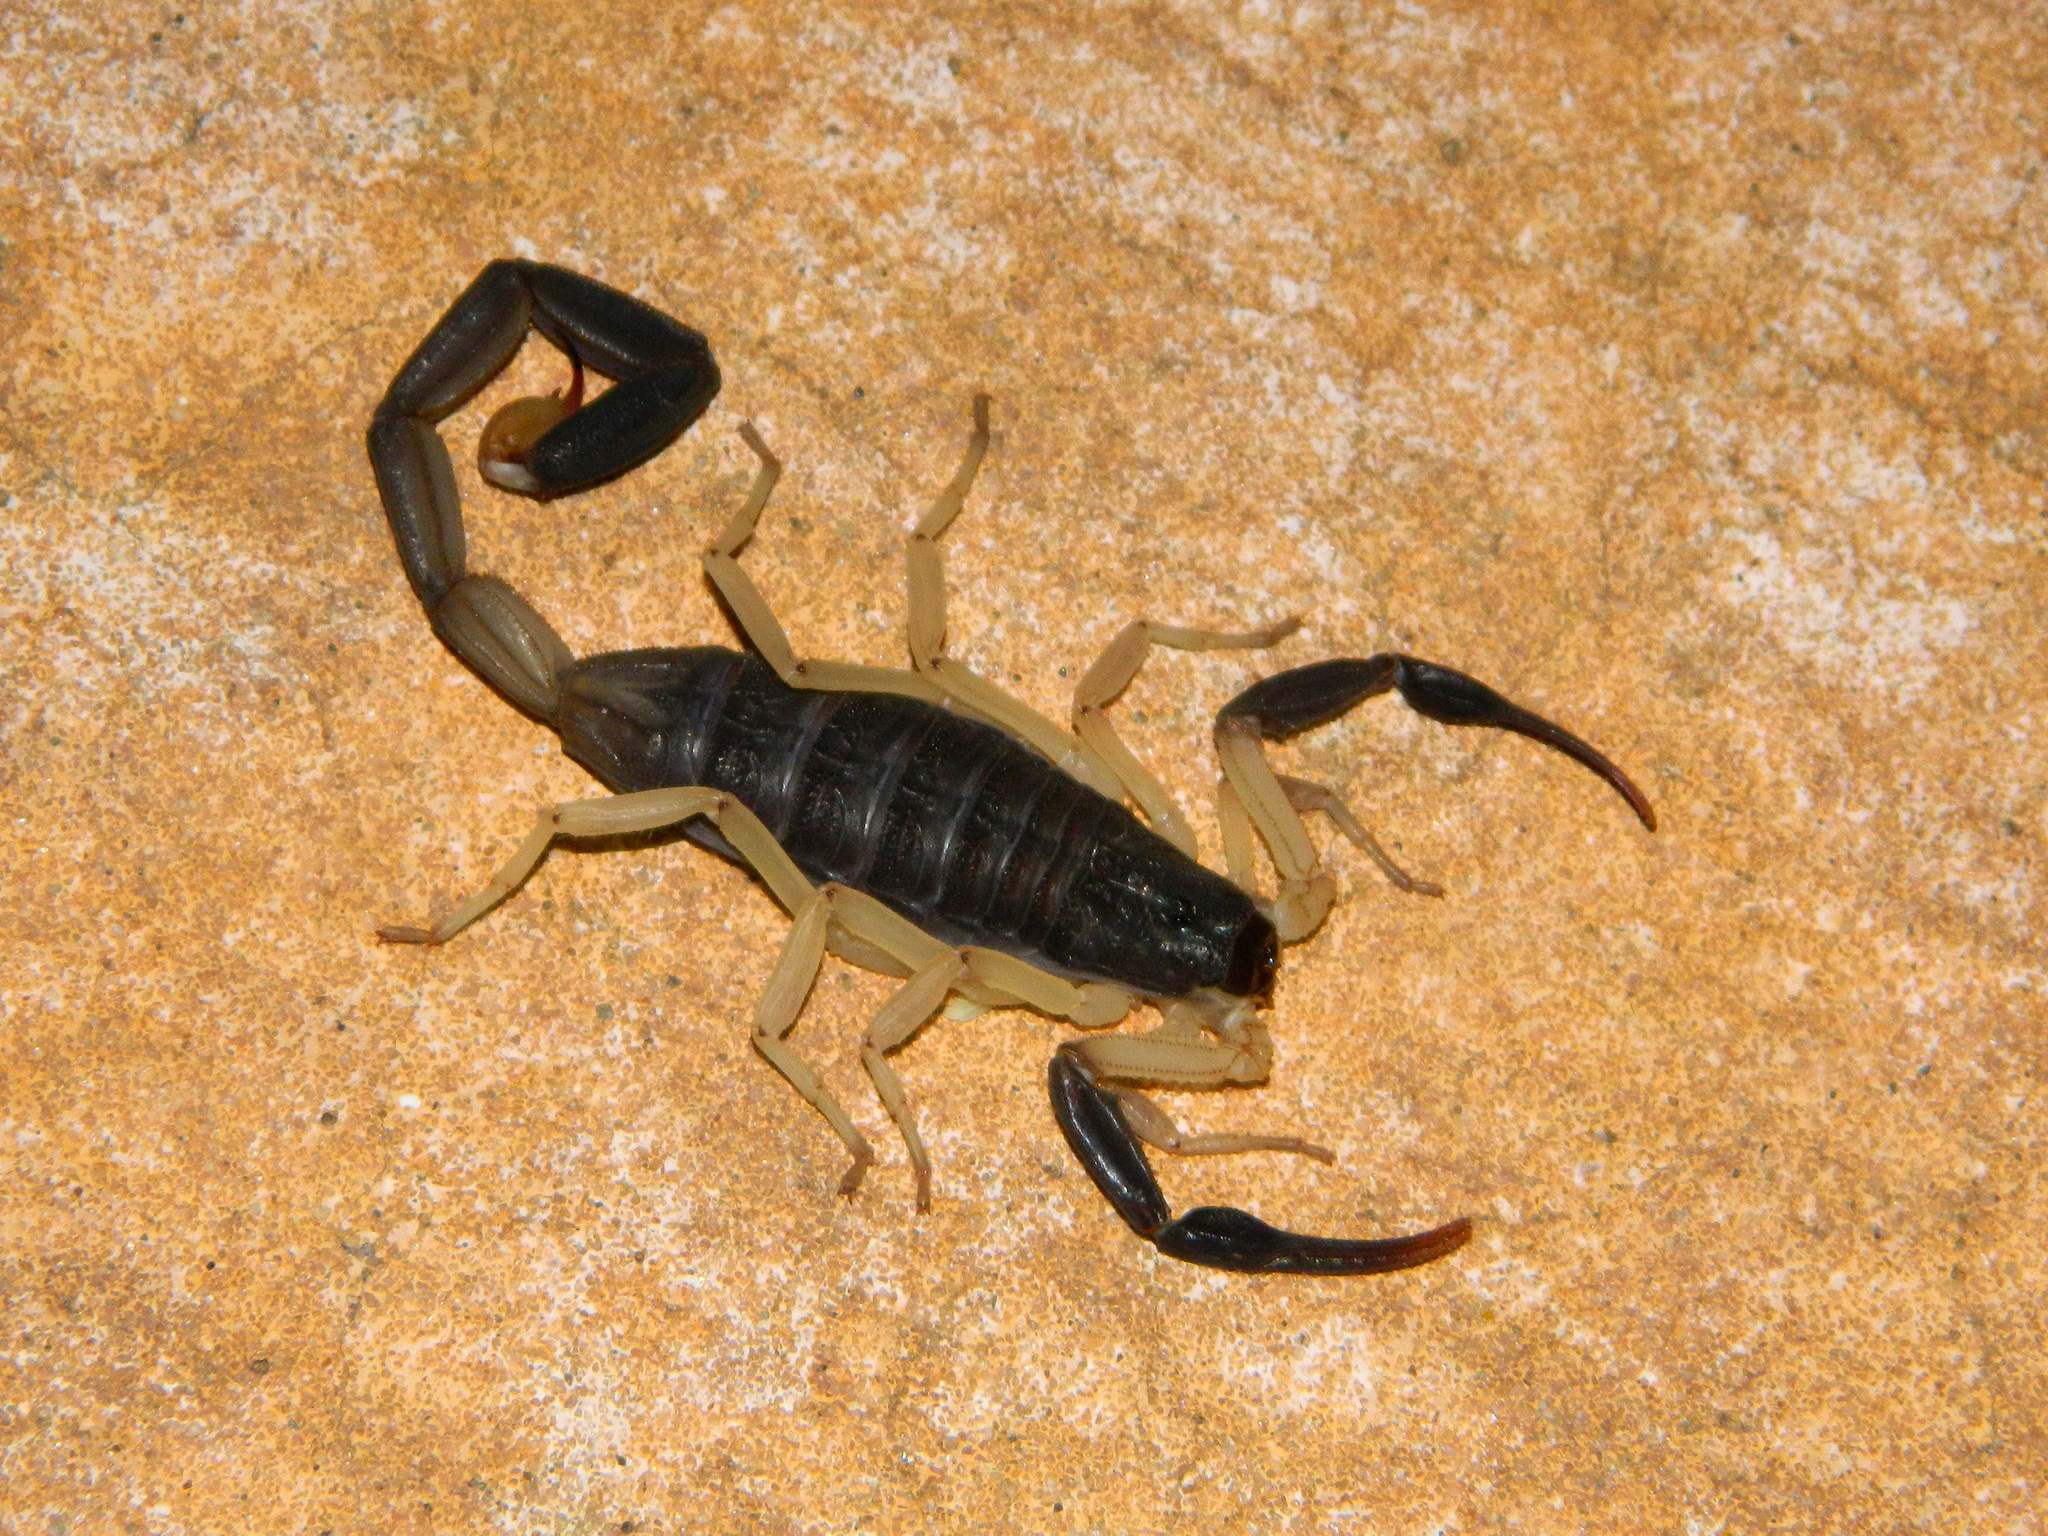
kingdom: Animalia
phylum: Arthropoda
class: Arachnida
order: Scorpiones
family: Buthidae
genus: Centruroides
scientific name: Centruroides fulvipes
